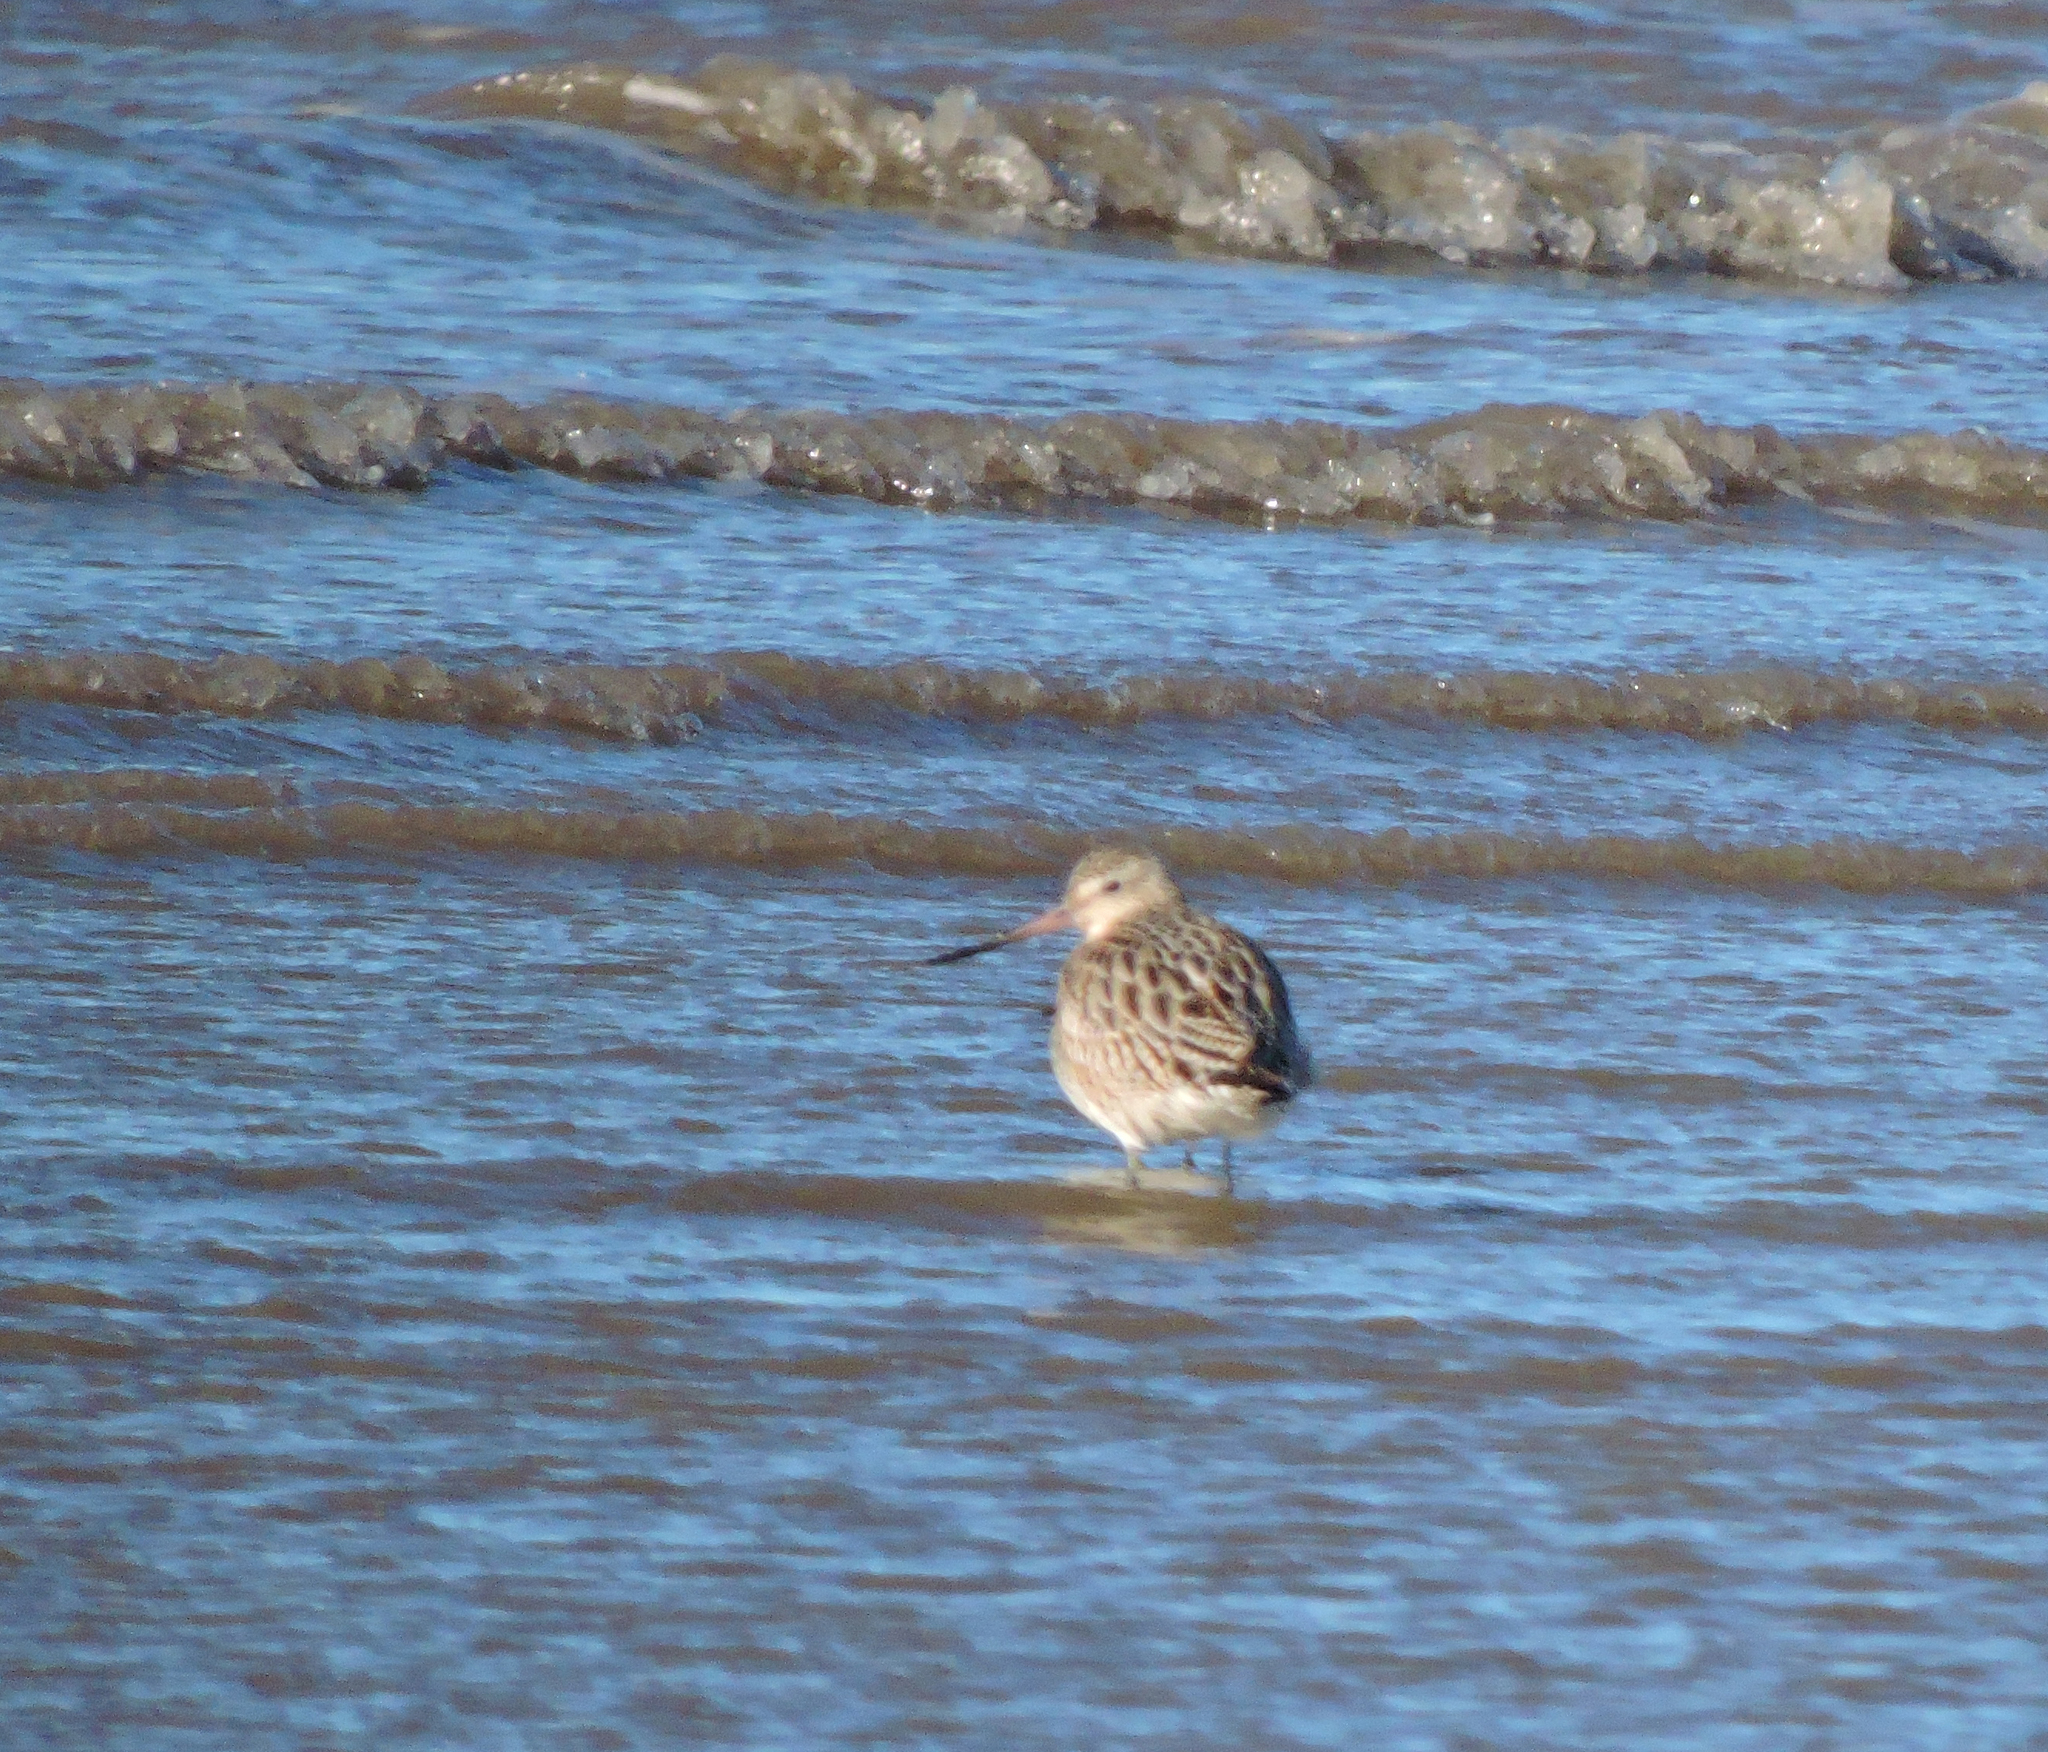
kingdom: Animalia
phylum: Chordata
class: Aves
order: Charadriiformes
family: Scolopacidae
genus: Limosa
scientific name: Limosa lapponica
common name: Bar-tailed godwit
